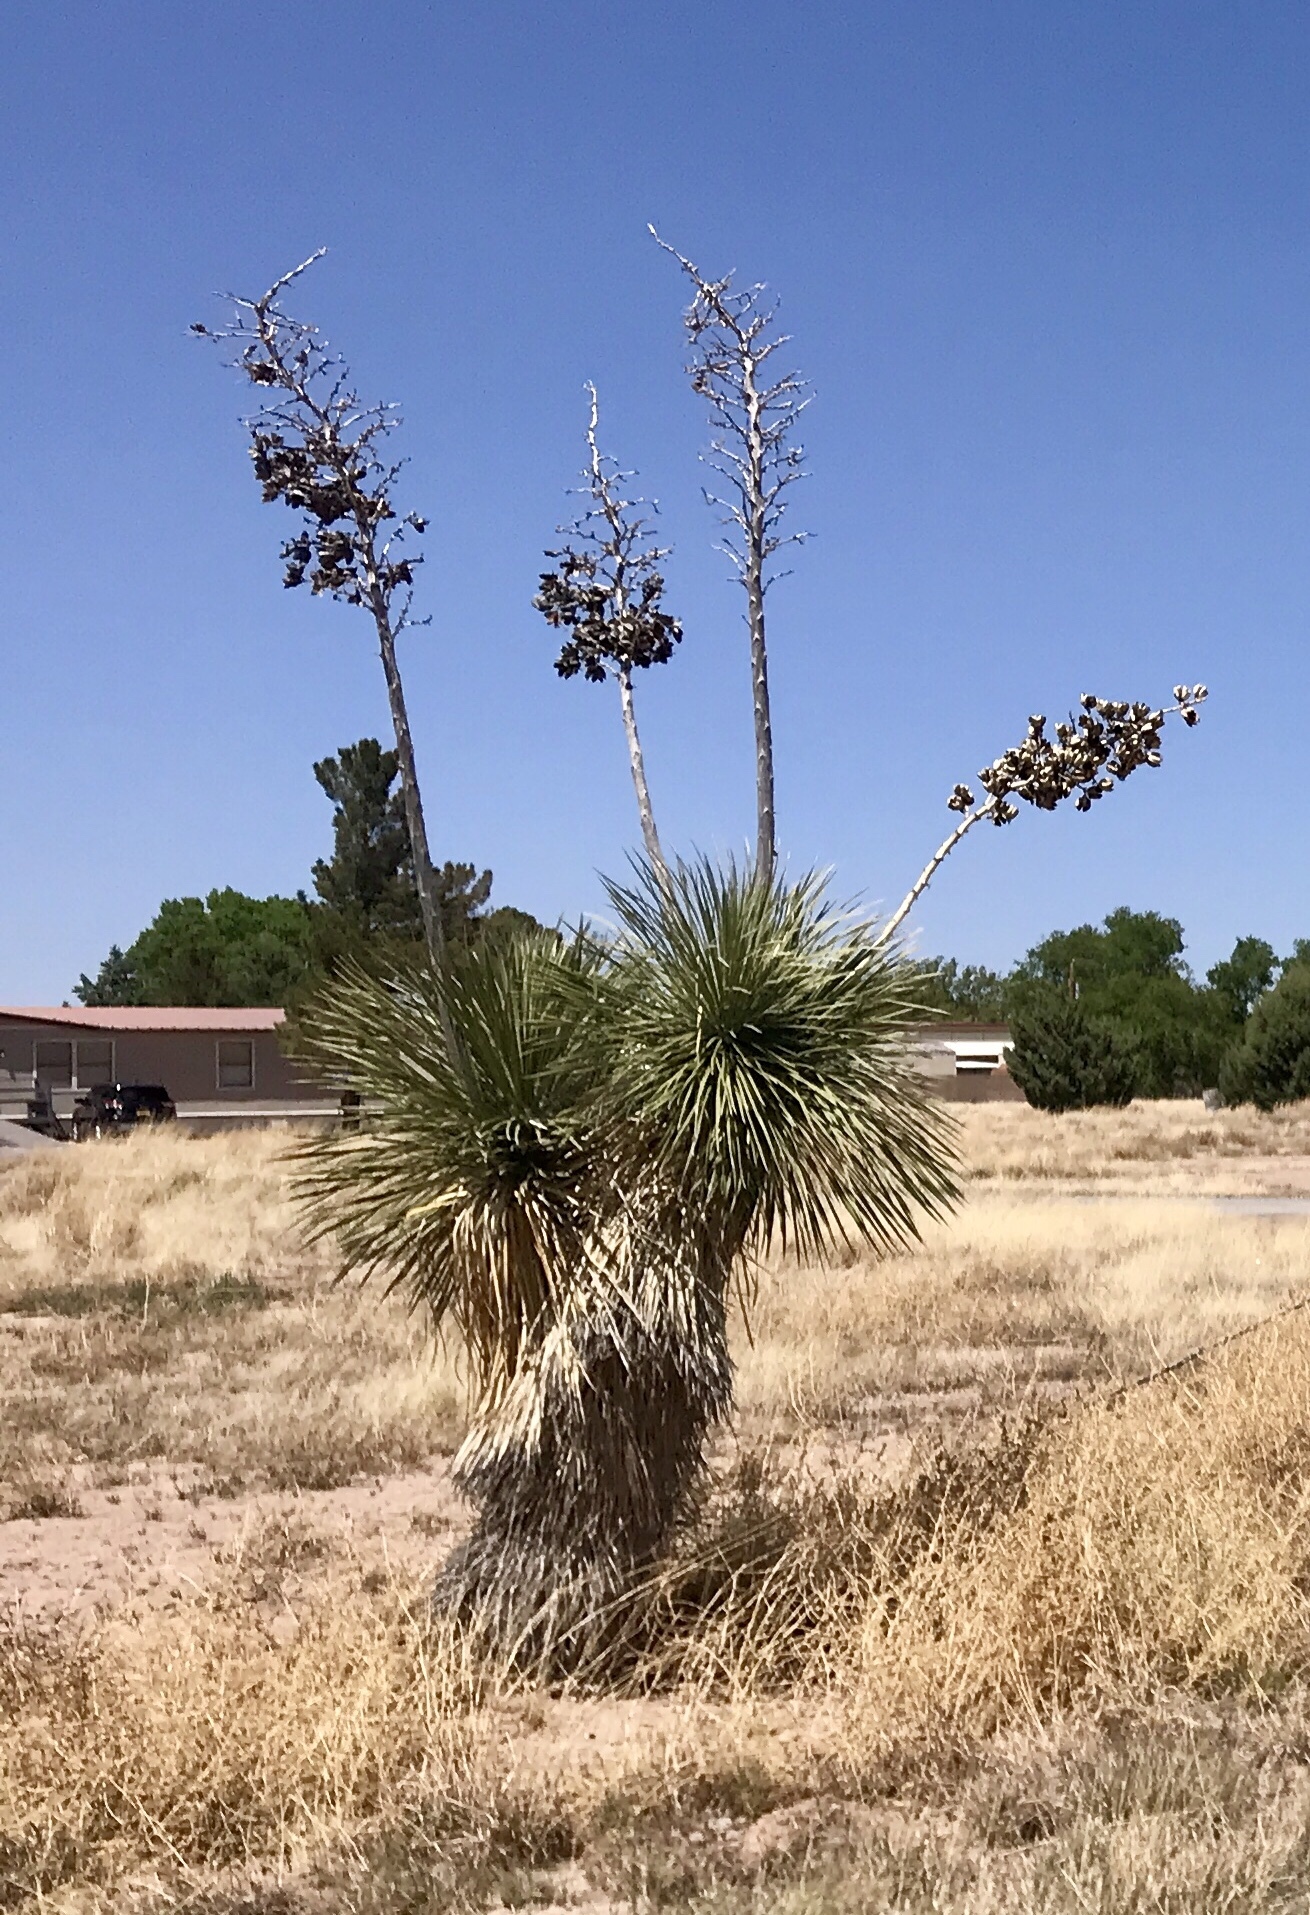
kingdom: Plantae
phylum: Tracheophyta
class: Liliopsida
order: Asparagales
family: Asparagaceae
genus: Yucca
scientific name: Yucca elata
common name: Palmella
